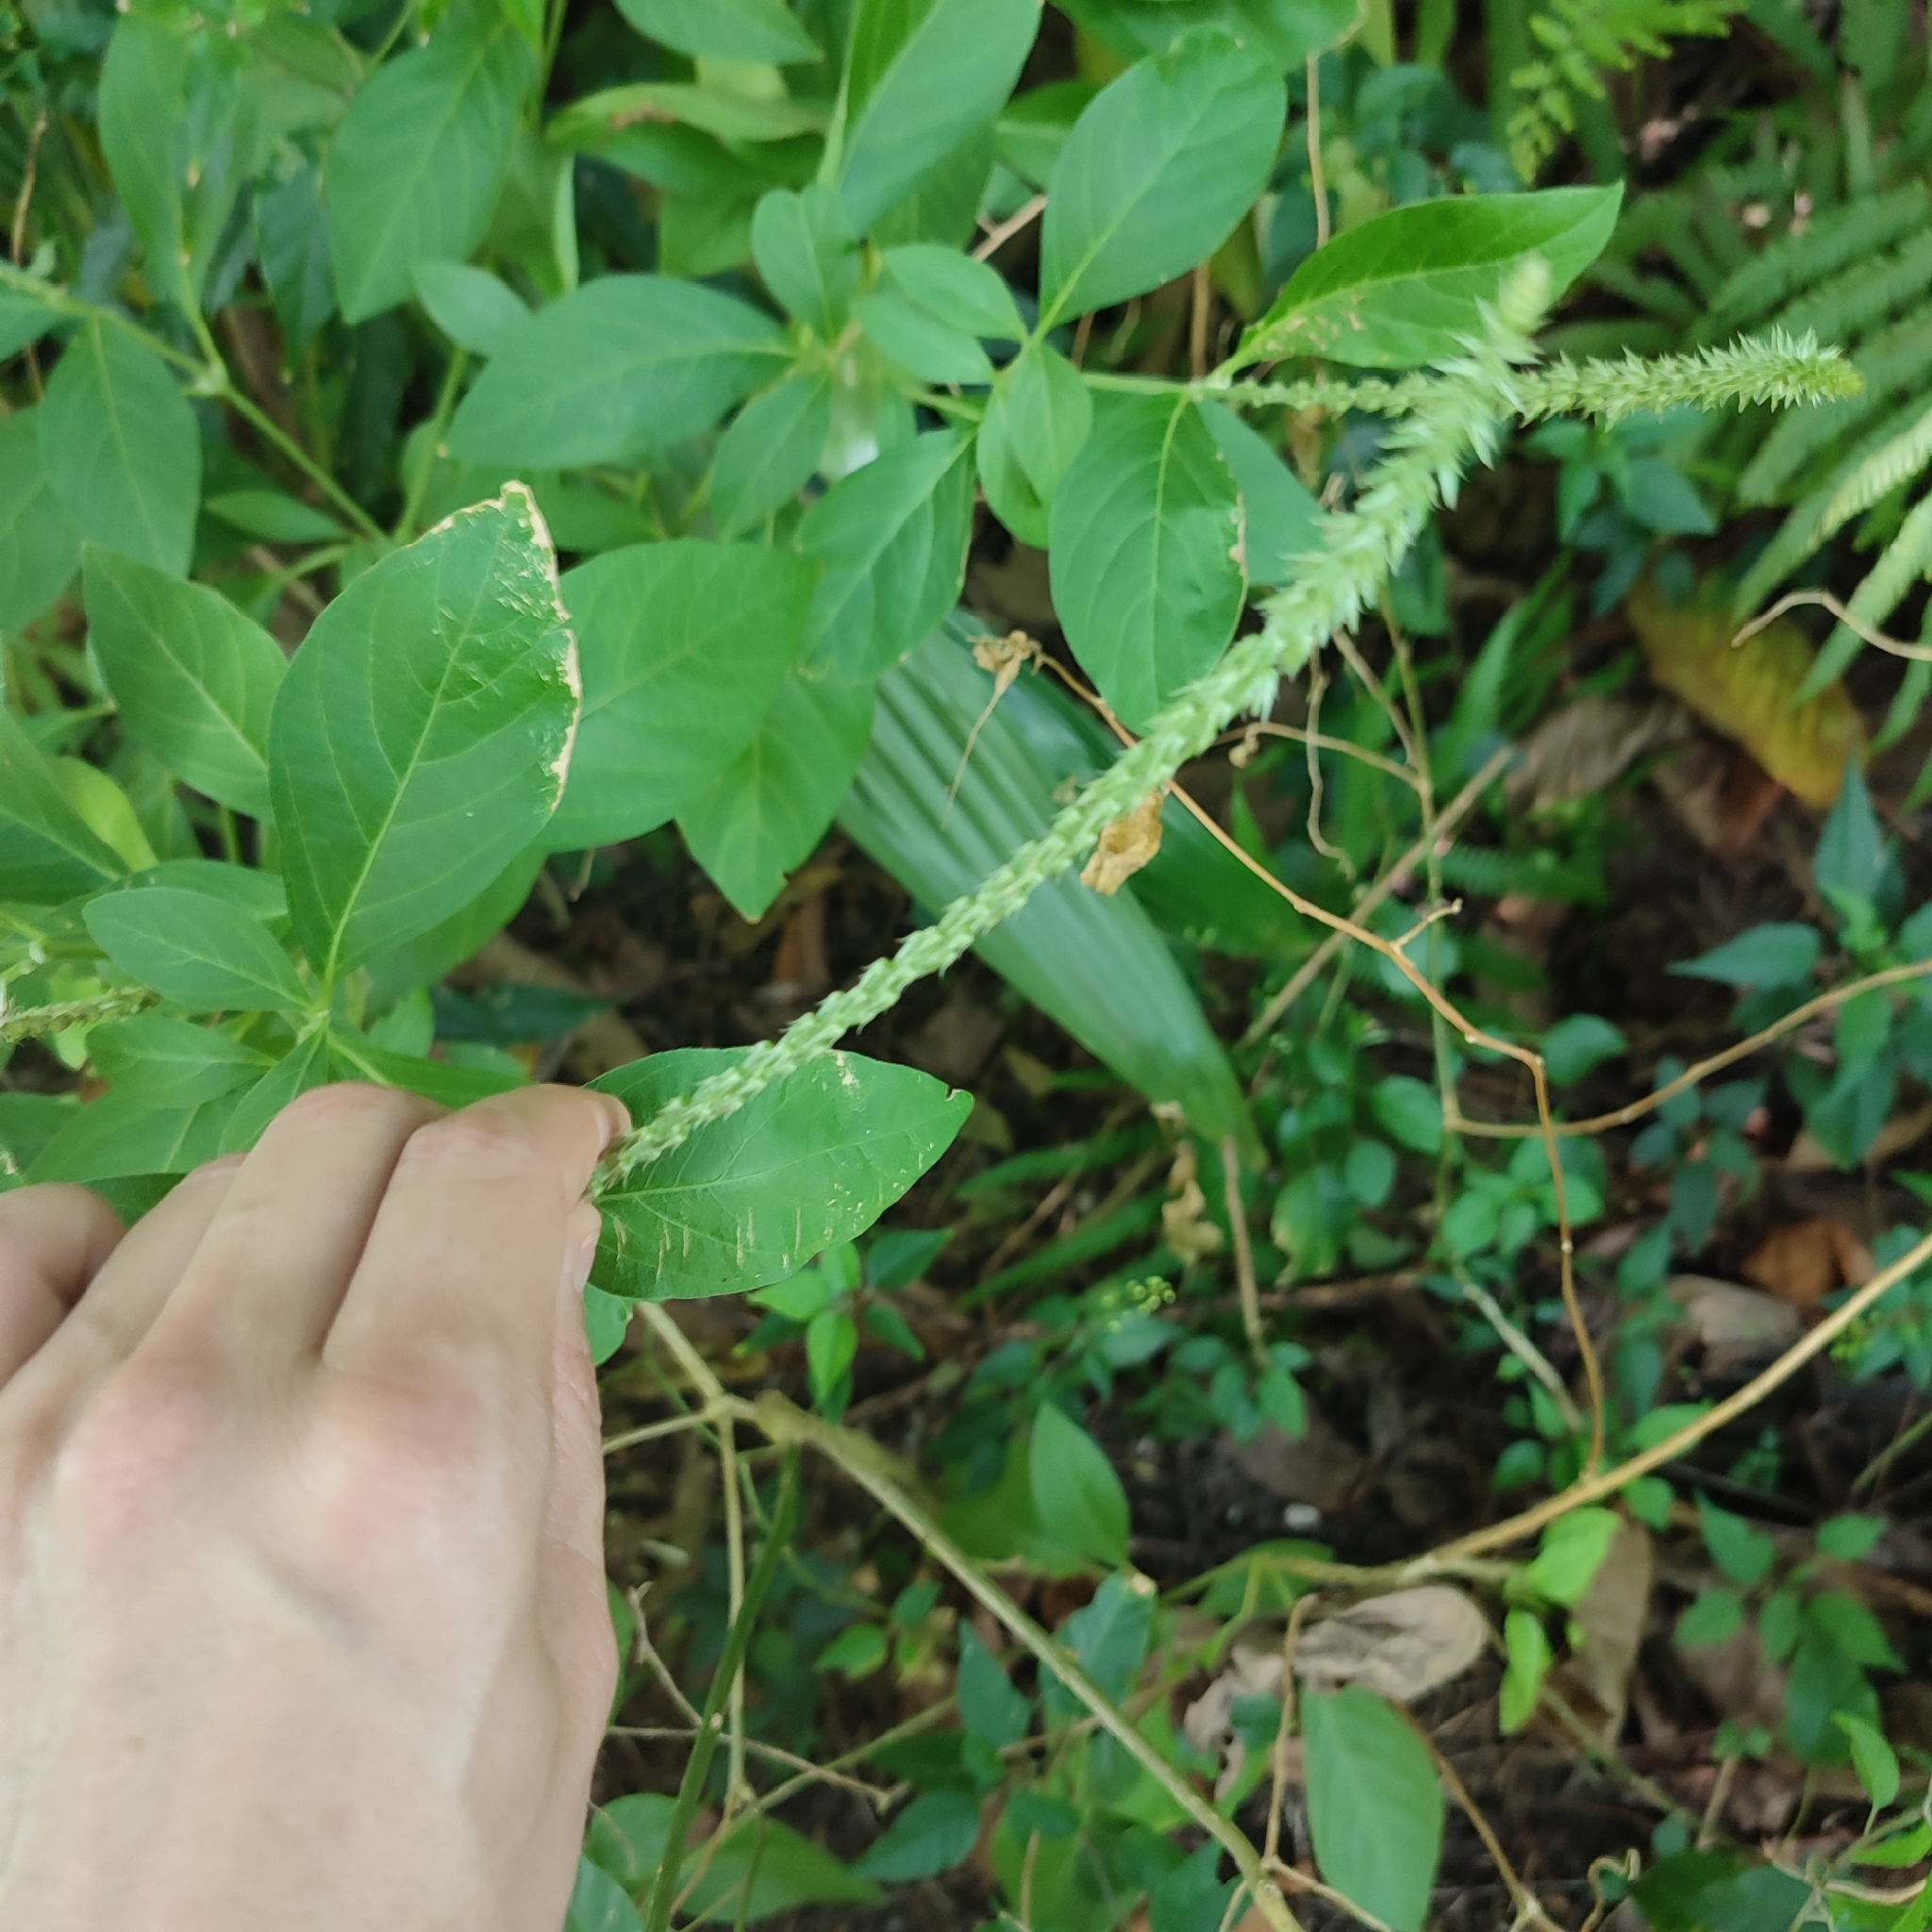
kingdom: Plantae
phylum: Tracheophyta
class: Magnoliopsida
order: Caryophyllales
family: Amaranthaceae
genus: Achyranthes
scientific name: Achyranthes aspera
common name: Devil's horsewhip
